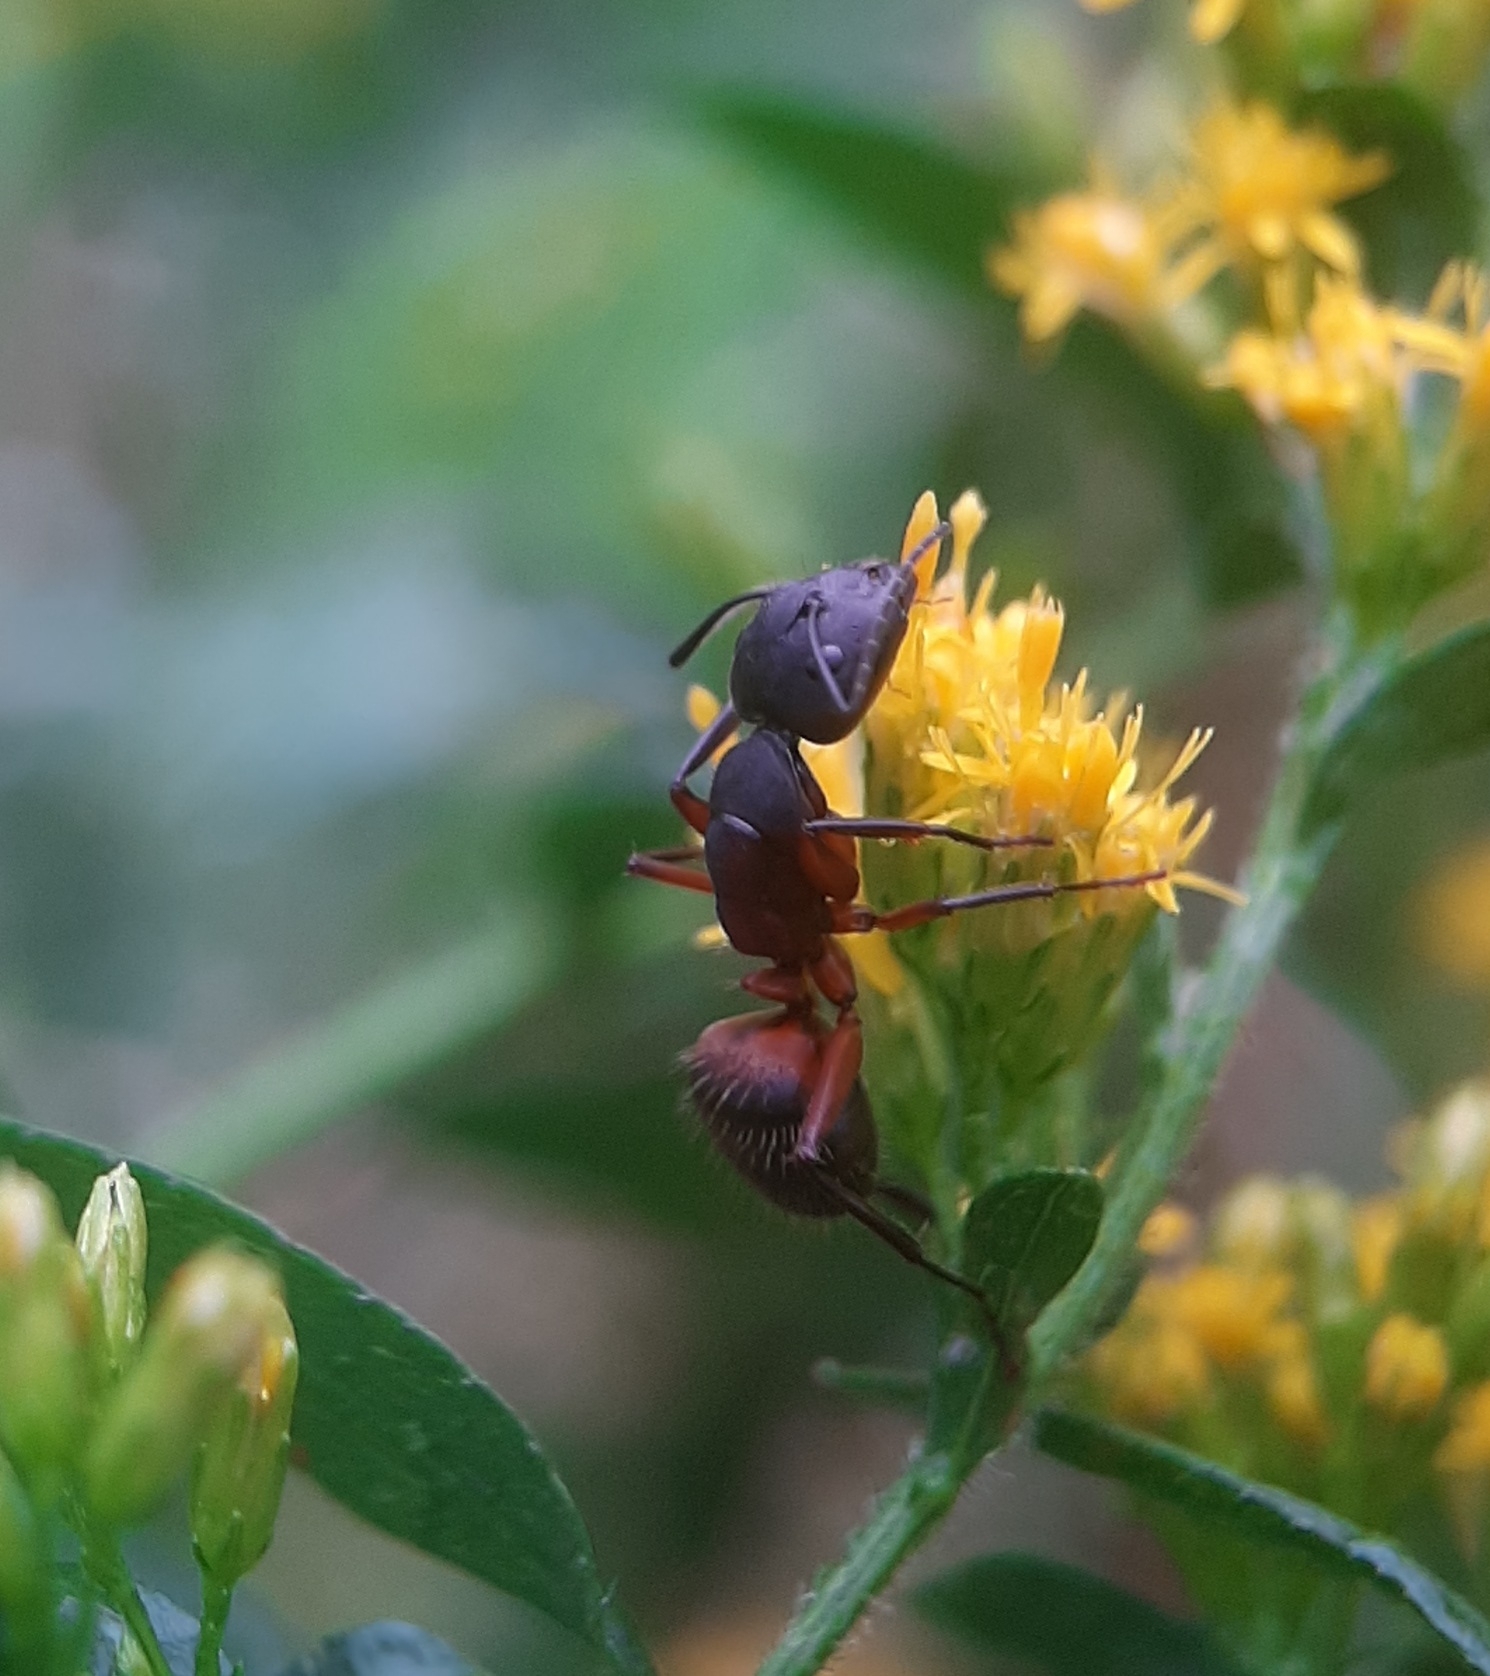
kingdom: Animalia
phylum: Arthropoda
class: Insecta
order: Hymenoptera
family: Formicidae
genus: Camponotus
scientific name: Camponotus chromaiodes
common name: Red carpenter ant
